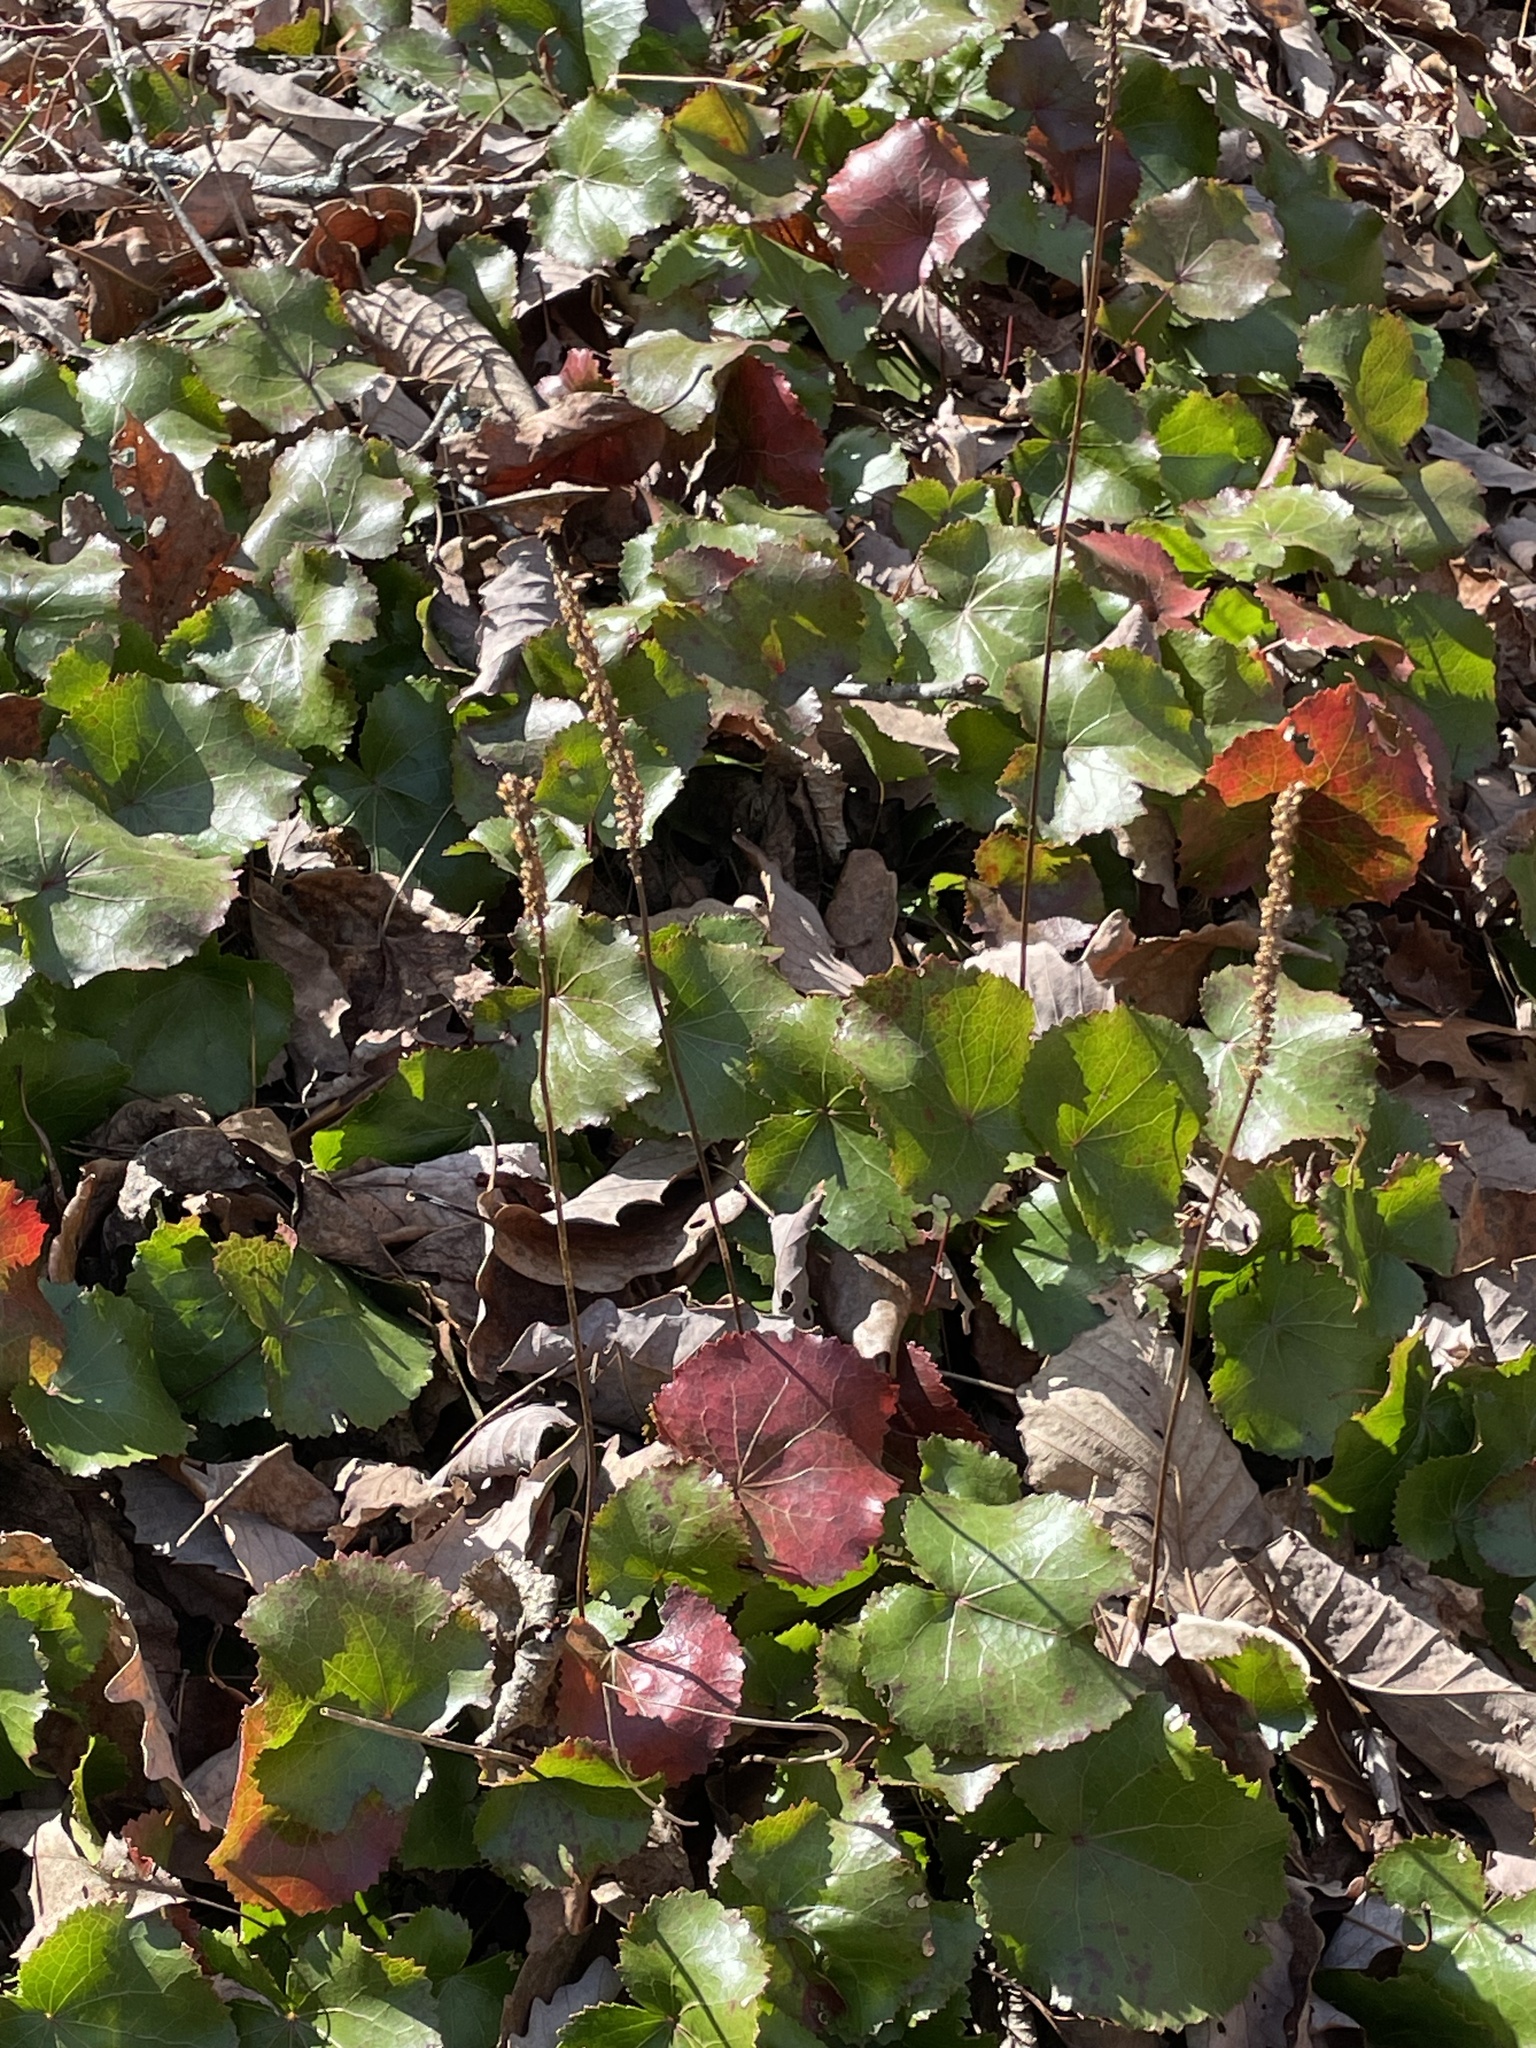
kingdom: Plantae
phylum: Tracheophyta
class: Magnoliopsida
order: Ericales
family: Diapensiaceae
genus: Galax
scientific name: Galax urceolata
